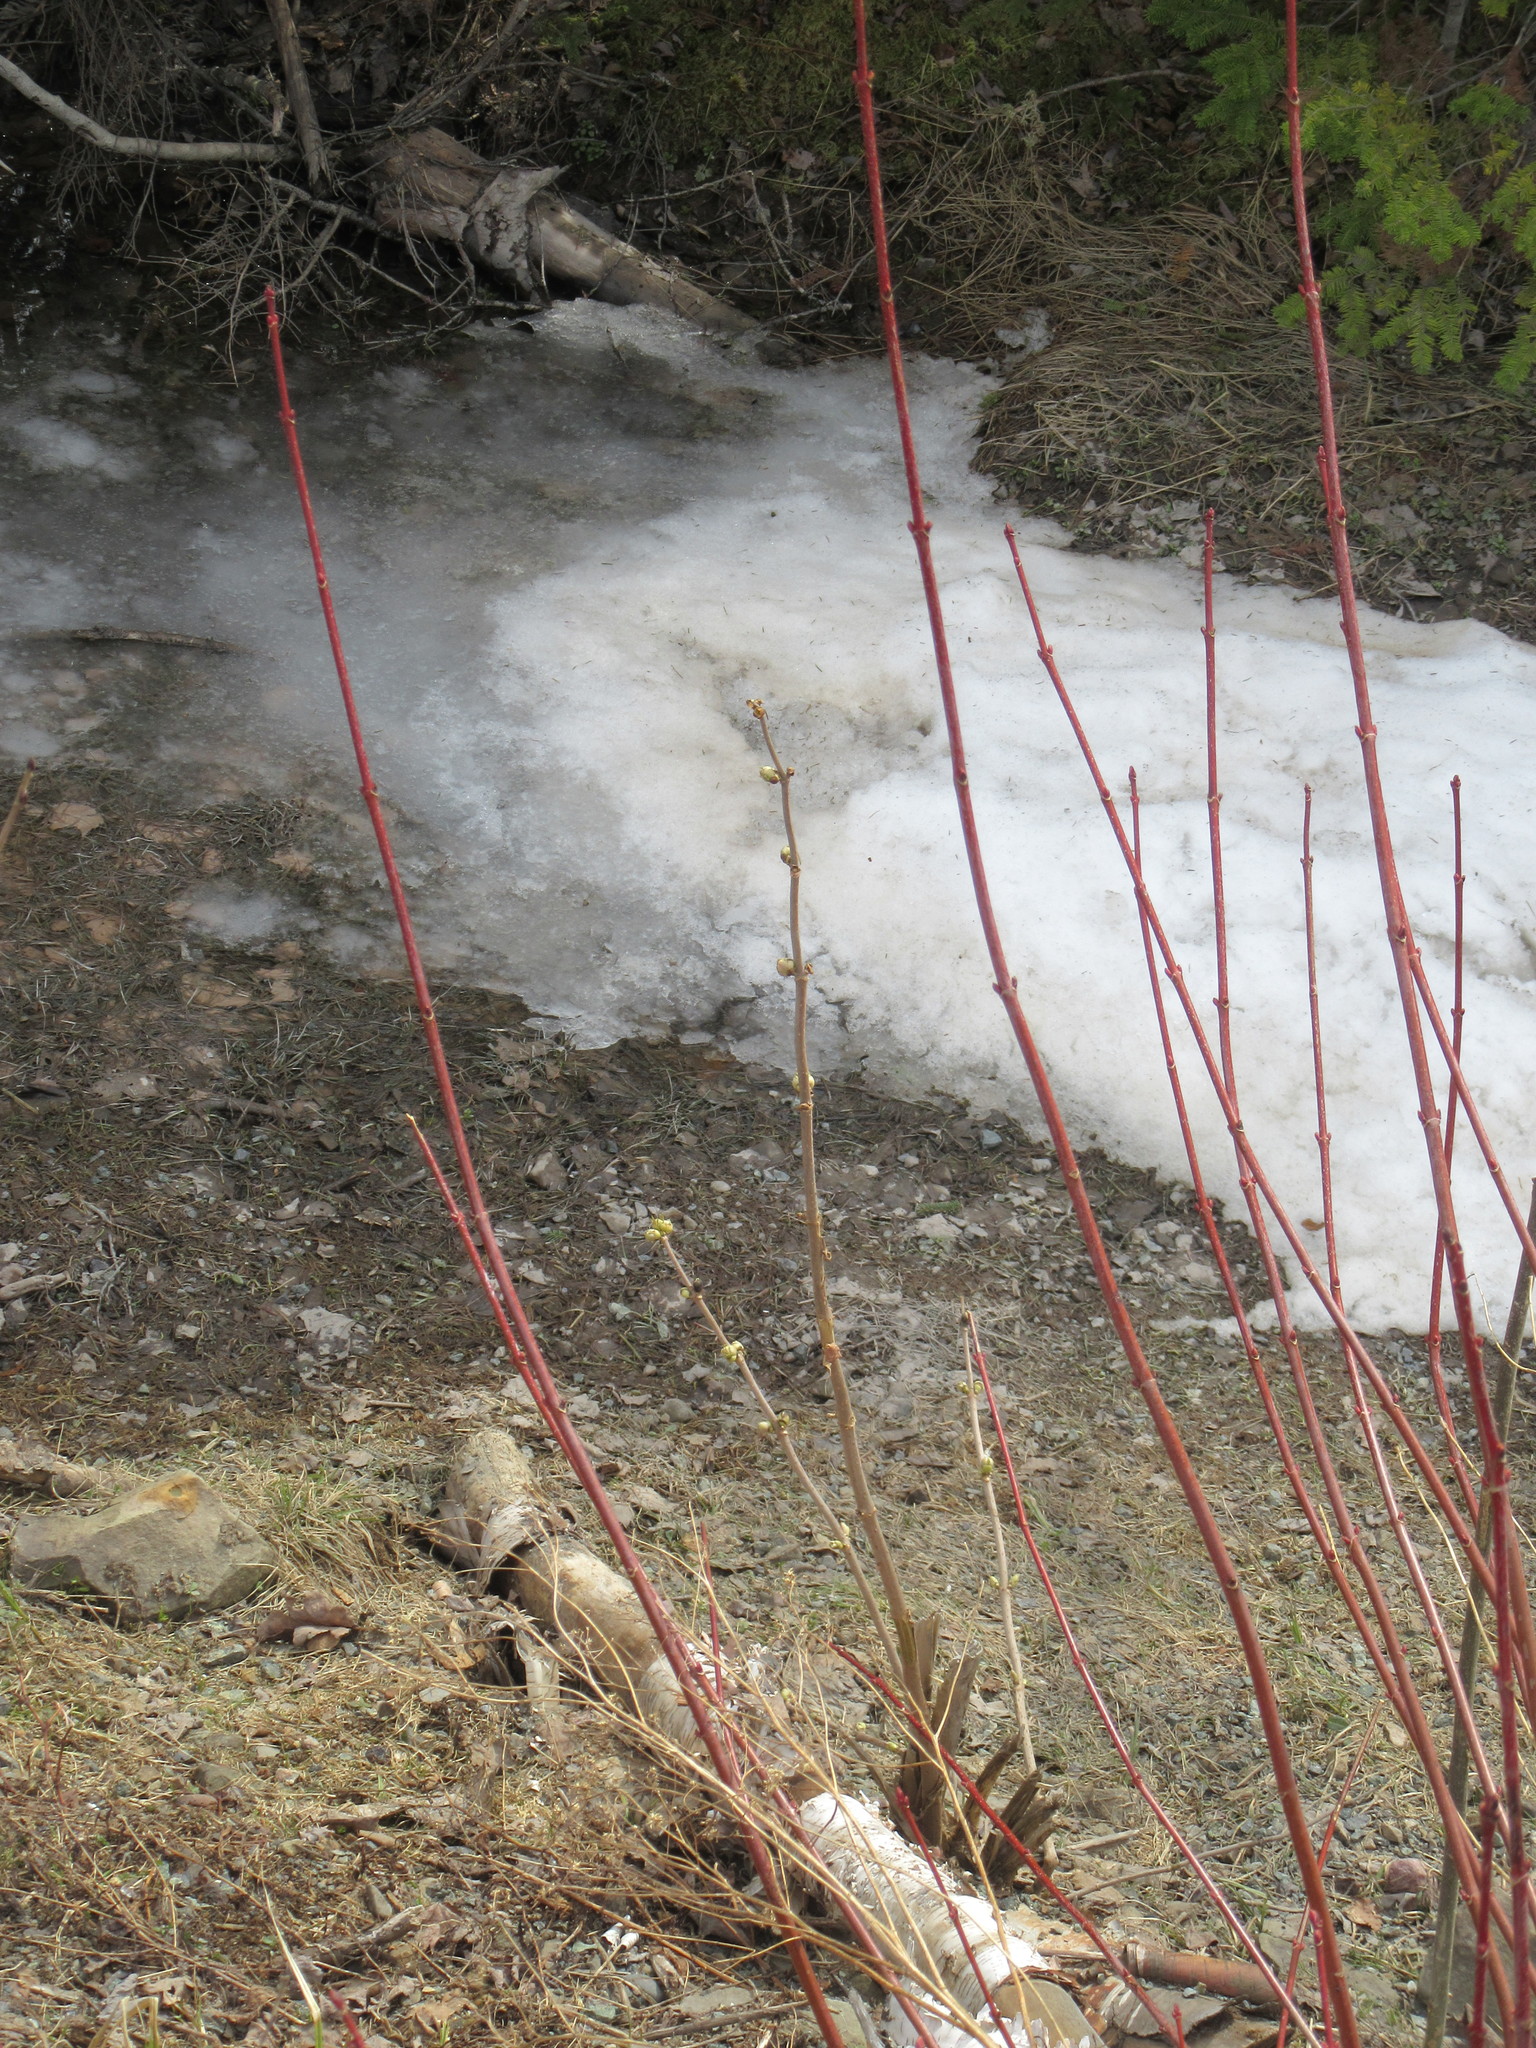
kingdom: Plantae
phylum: Tracheophyta
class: Magnoliopsida
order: Dipsacales
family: Viburnaceae
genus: Sambucus
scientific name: Sambucus racemosa
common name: Red-berried elder
